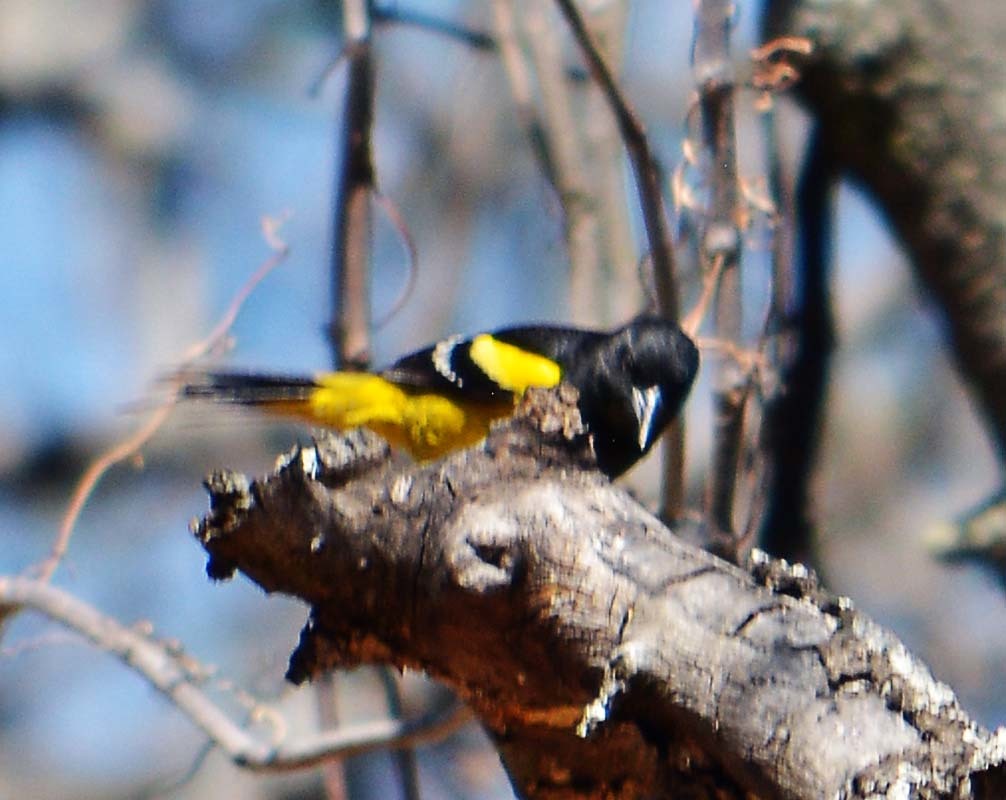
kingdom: Animalia
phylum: Chordata
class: Aves
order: Passeriformes
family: Icteridae
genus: Icterus
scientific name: Icterus parisorum
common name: Scott's oriole
